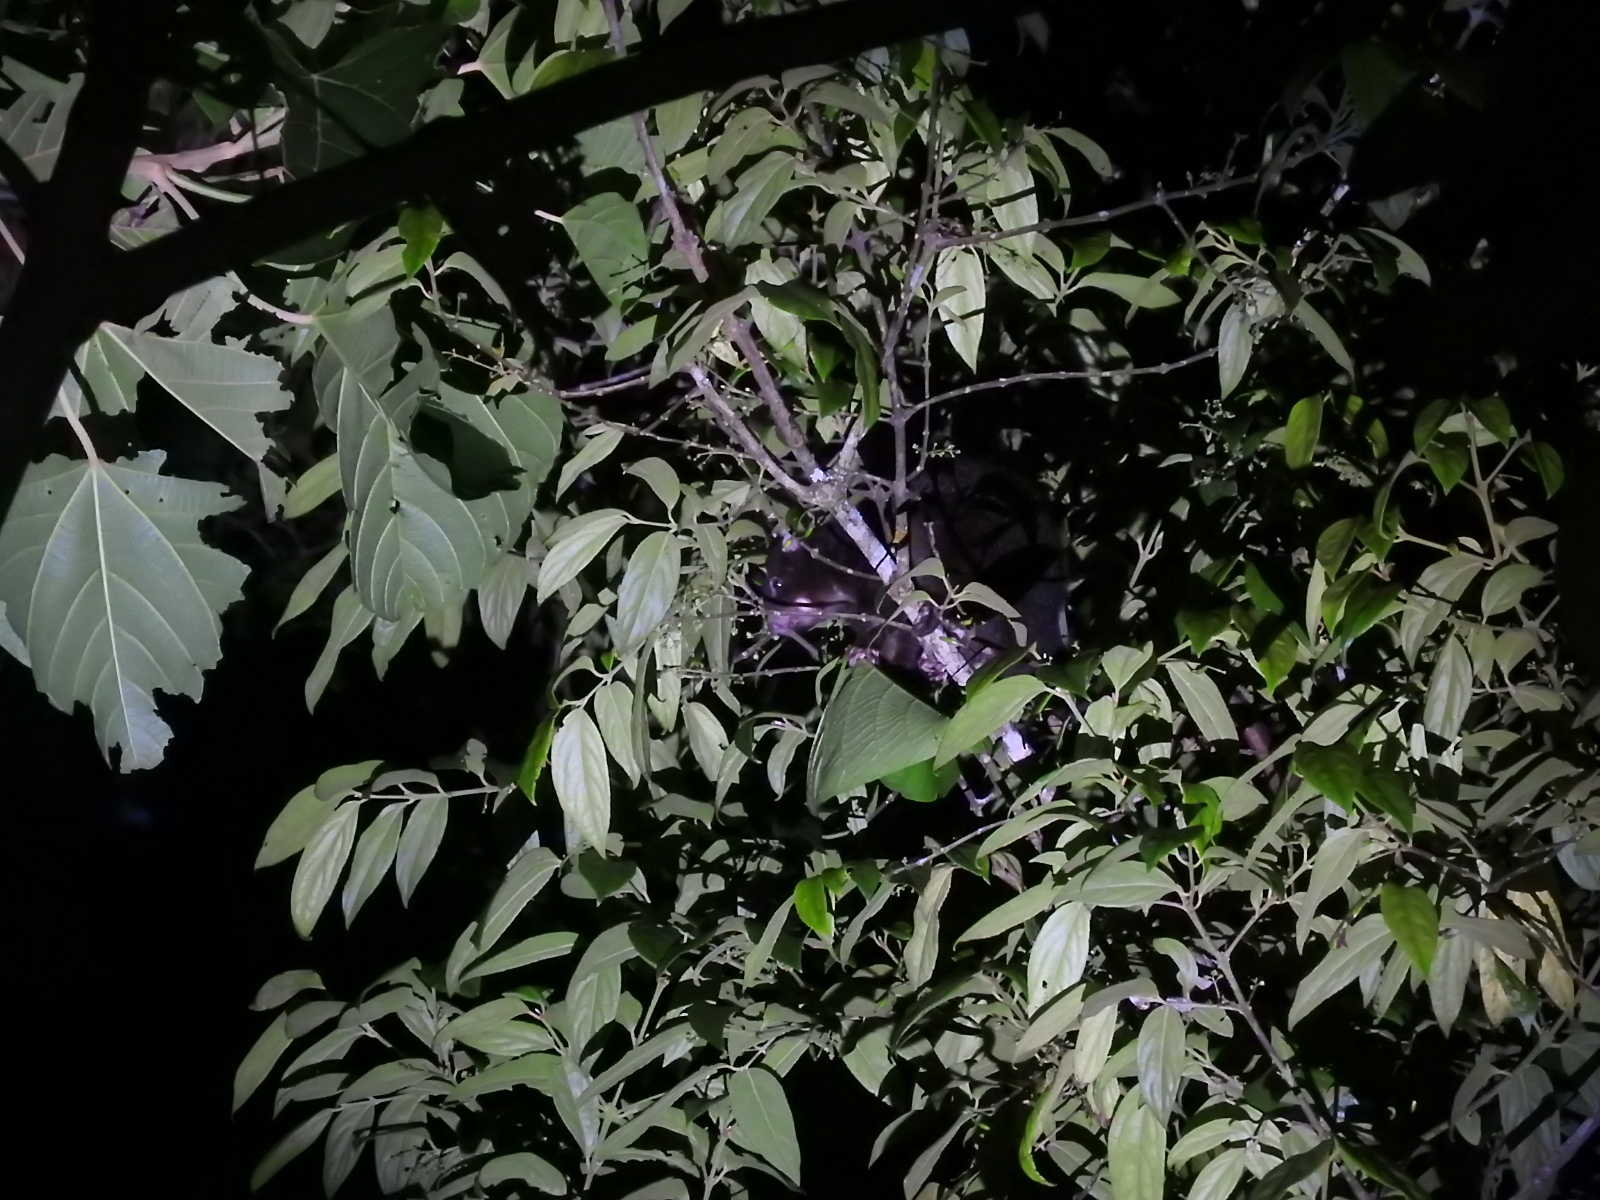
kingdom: Animalia
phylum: Chordata
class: Mammalia
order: Diprotodontia
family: Pseudocheiridae
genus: Pseudochirulus
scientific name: Pseudochirulus herbertensis
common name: Herbert river ringtail
